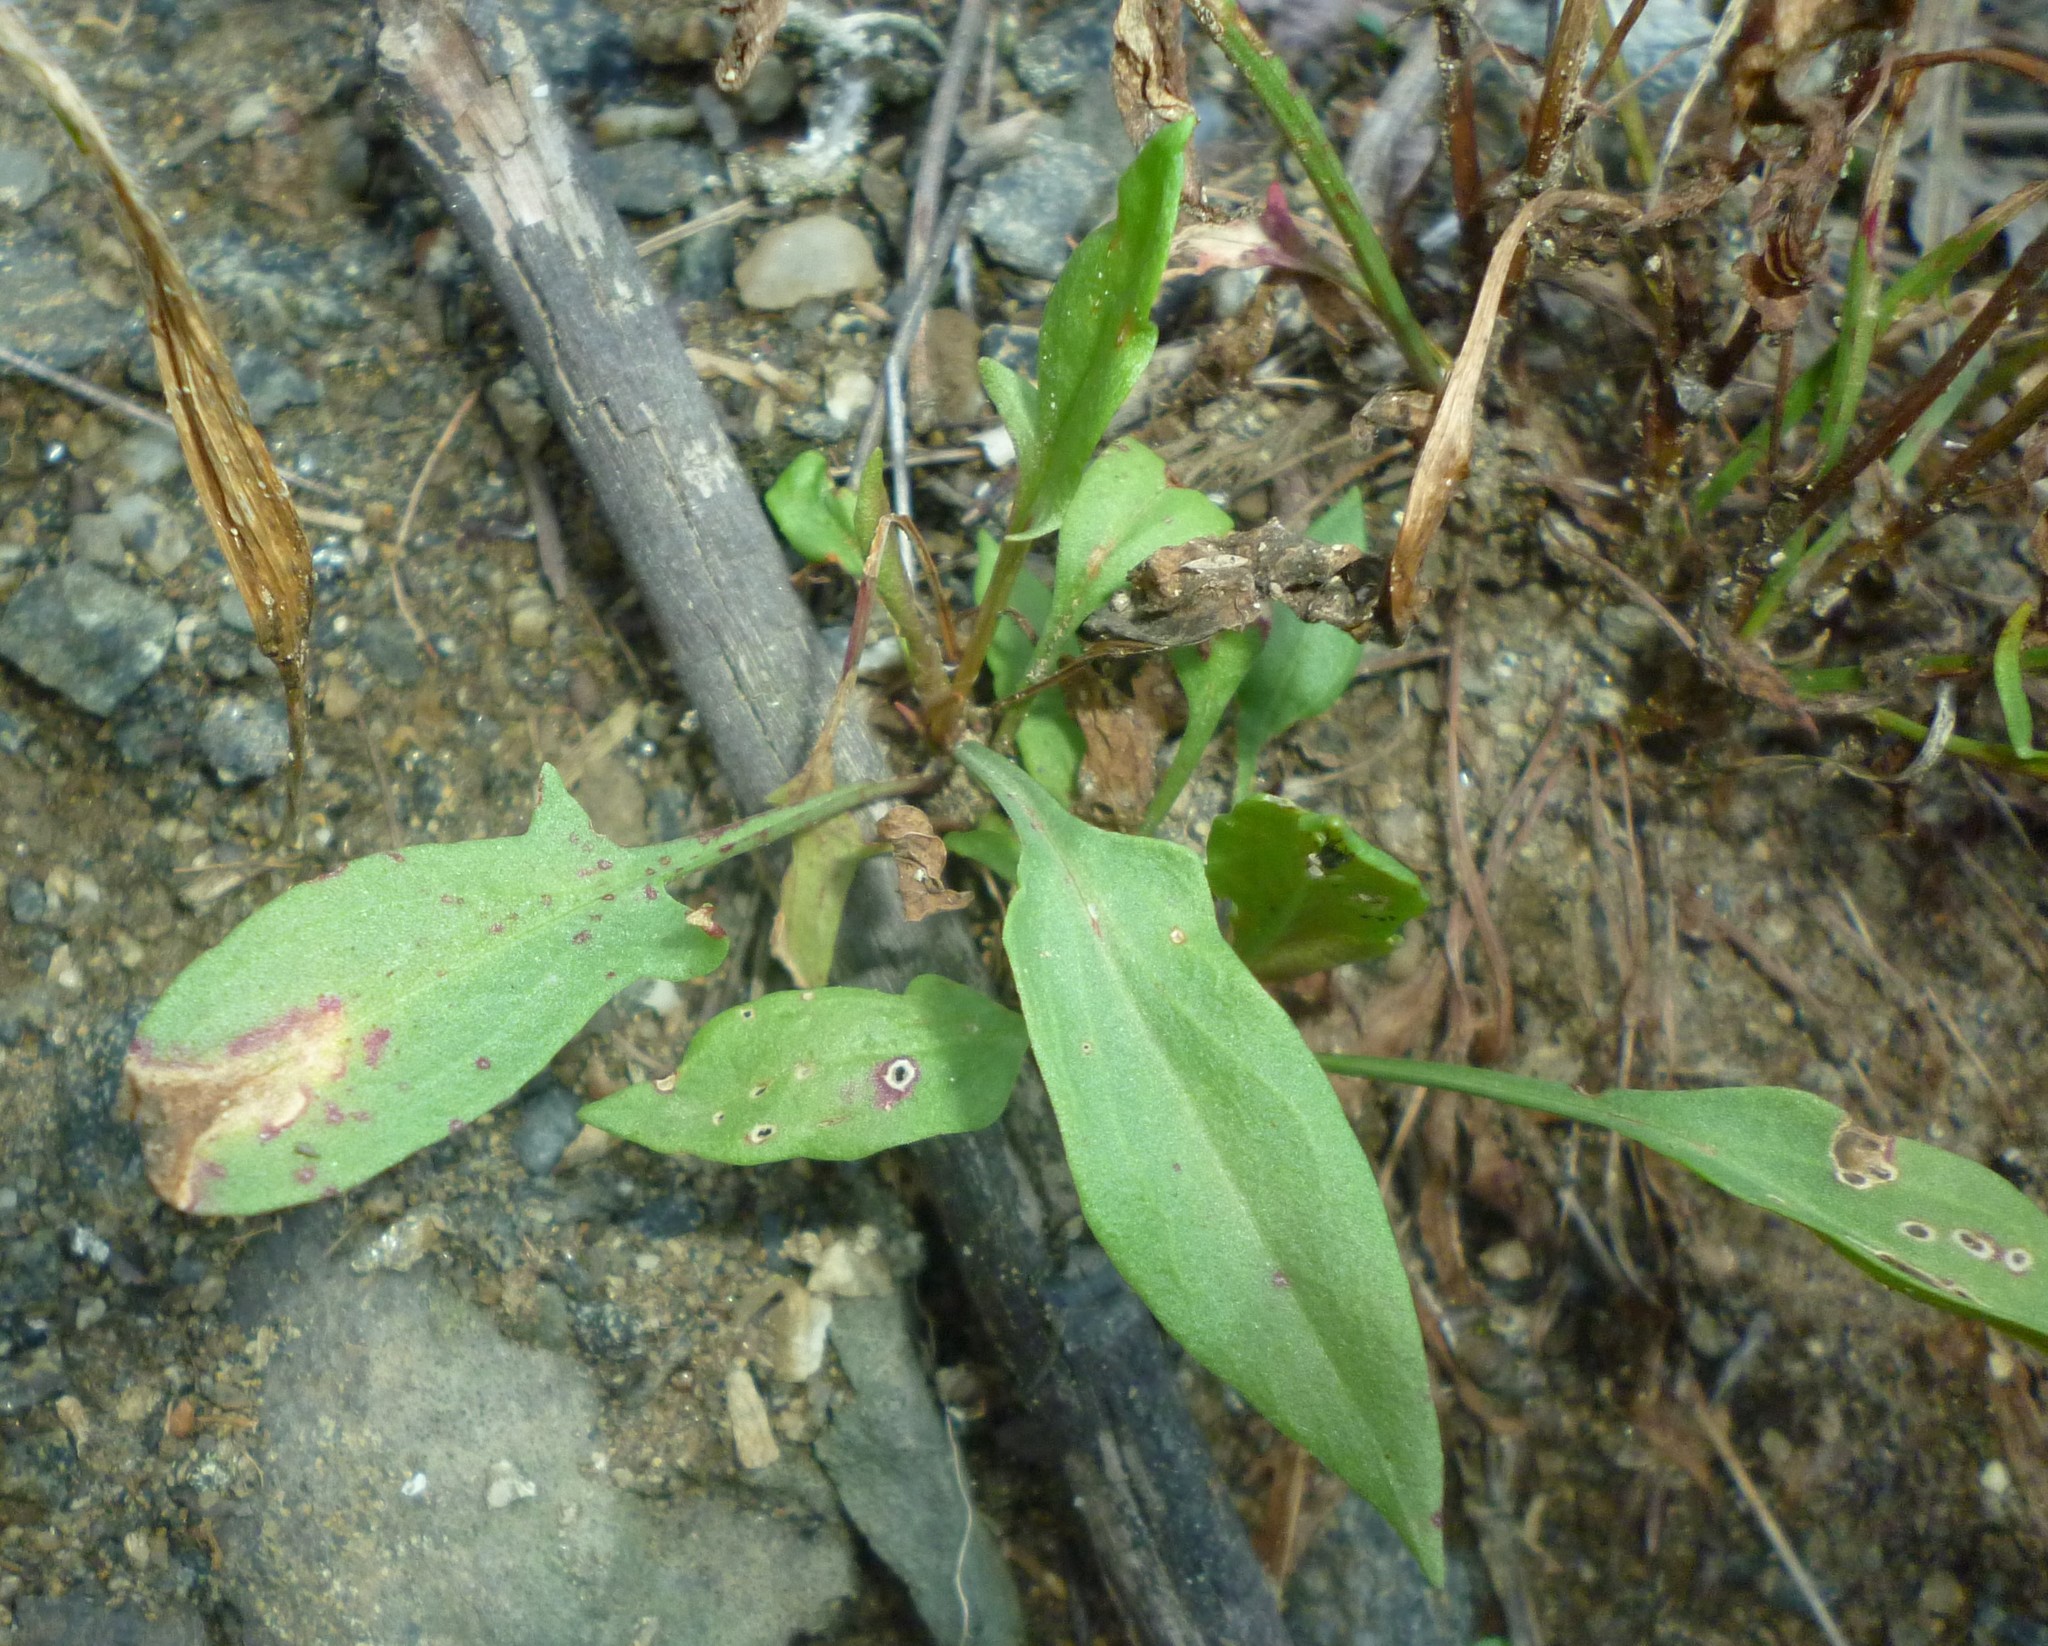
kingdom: Plantae
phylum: Tracheophyta
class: Magnoliopsida
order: Caryophyllales
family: Polygonaceae
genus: Rumex
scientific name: Rumex acetosella
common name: Common sheep sorrel
